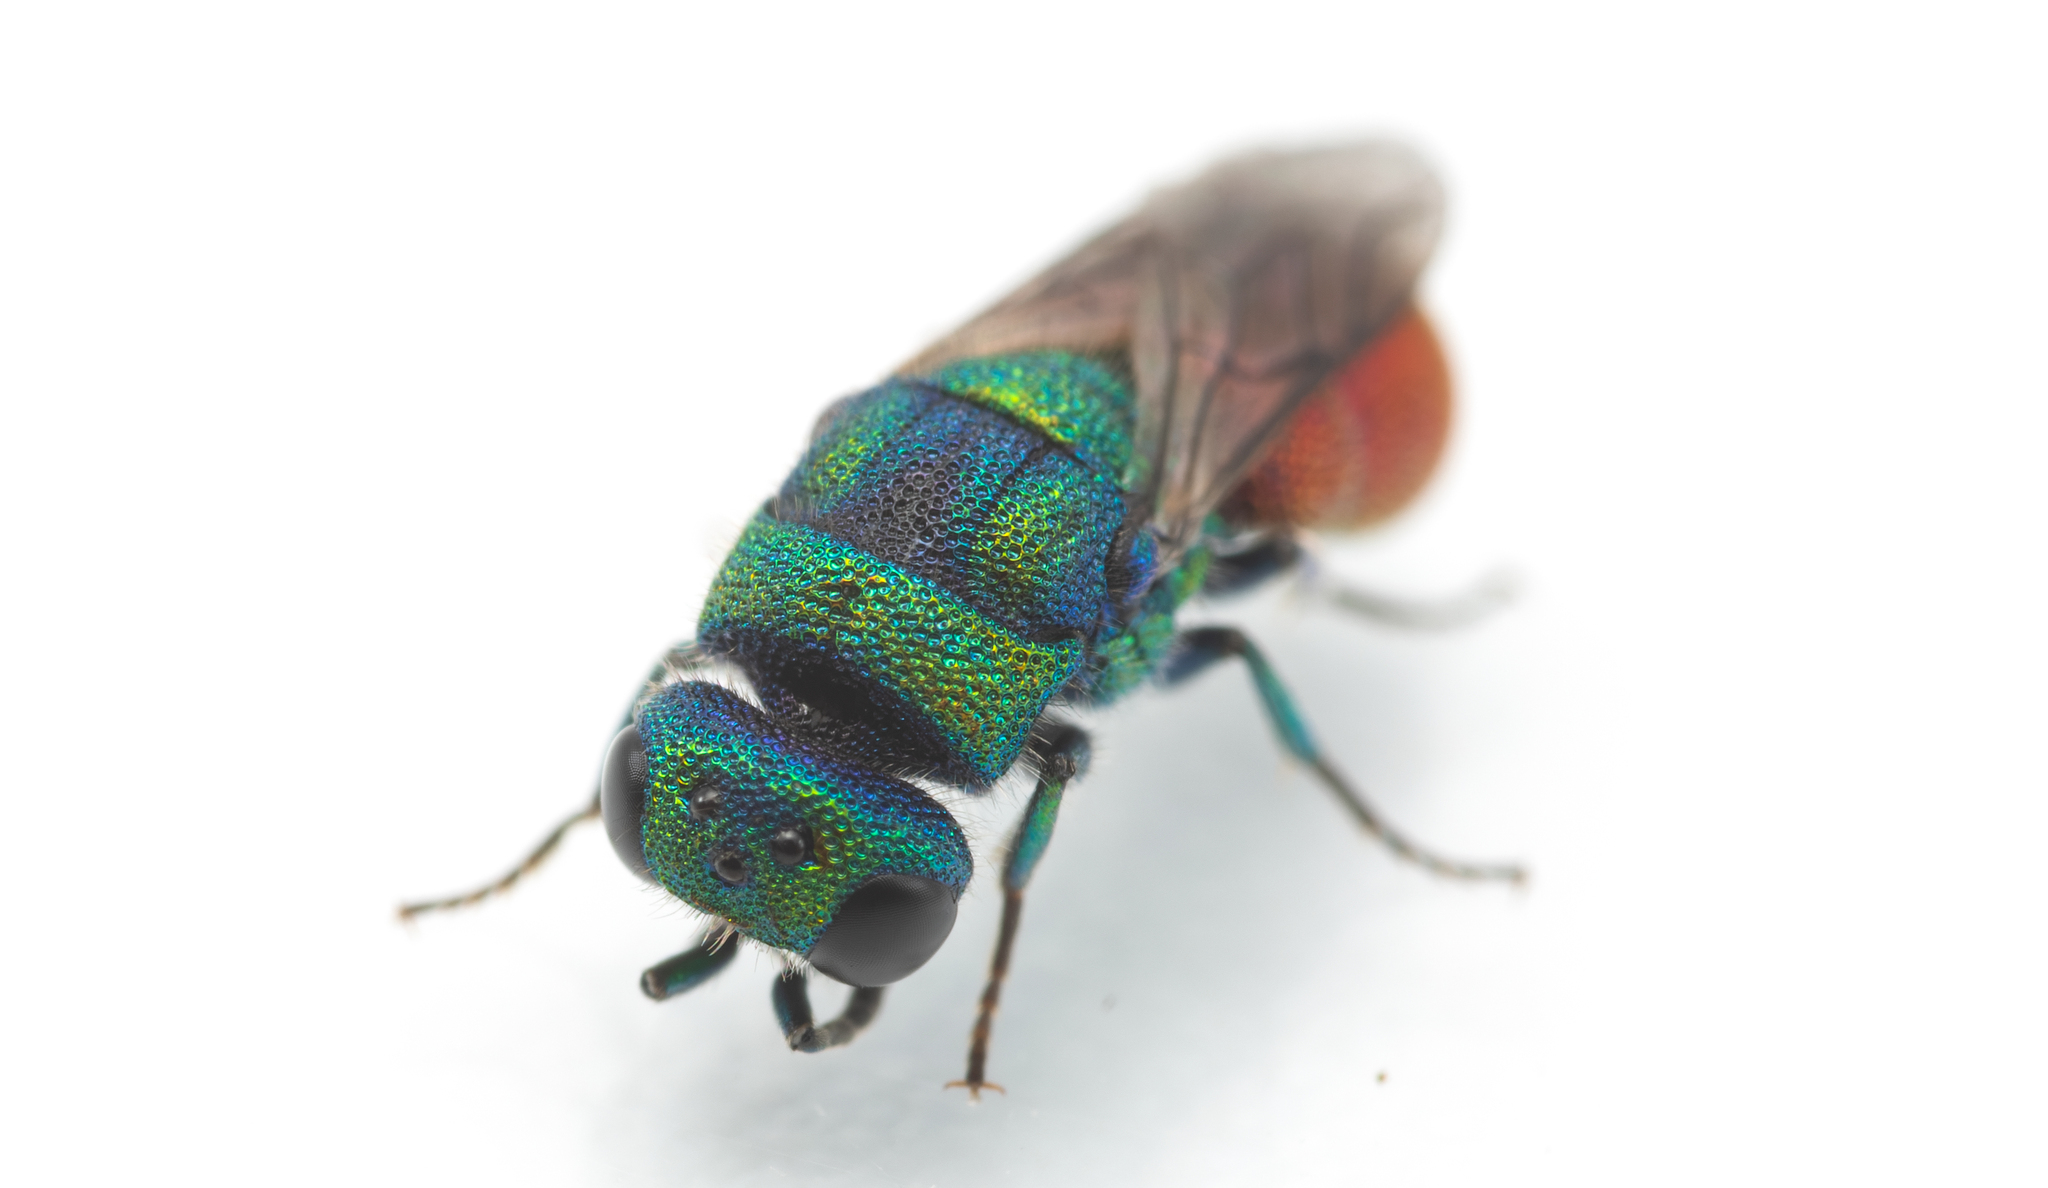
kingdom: Animalia
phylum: Arthropoda
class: Insecta
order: Hymenoptera
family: Chrysididae
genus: Chrysis
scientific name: Chrysis mixta
